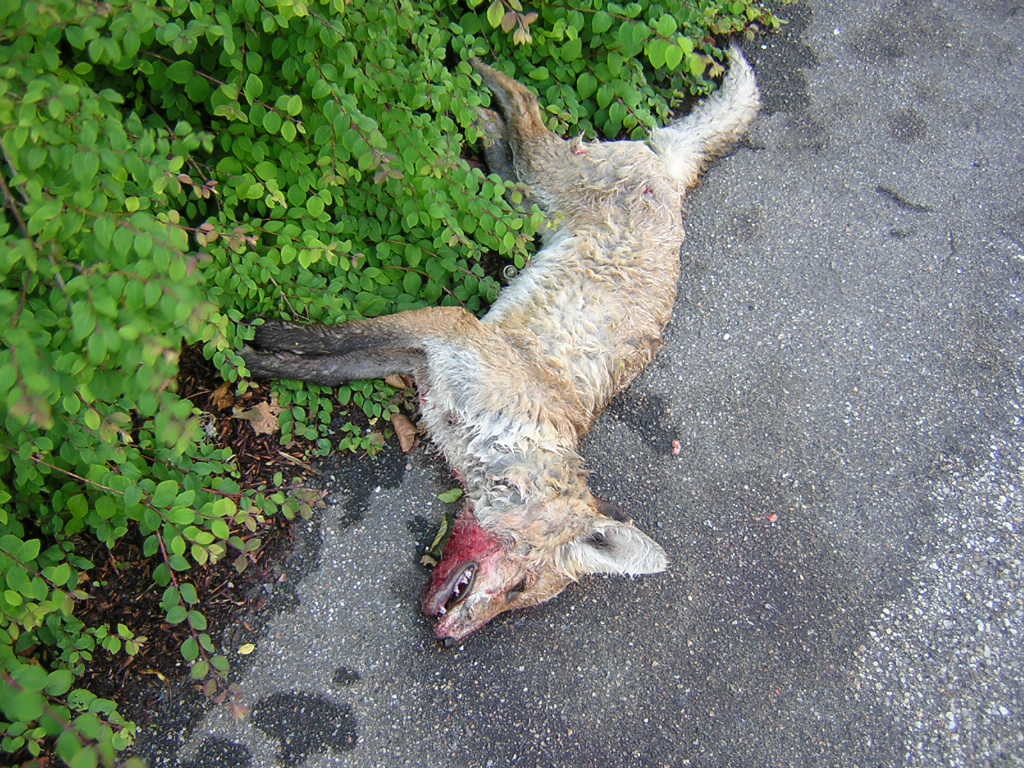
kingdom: Animalia
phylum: Chordata
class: Mammalia
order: Carnivora
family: Canidae
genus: Vulpes
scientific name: Vulpes vulpes
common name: Red fox
